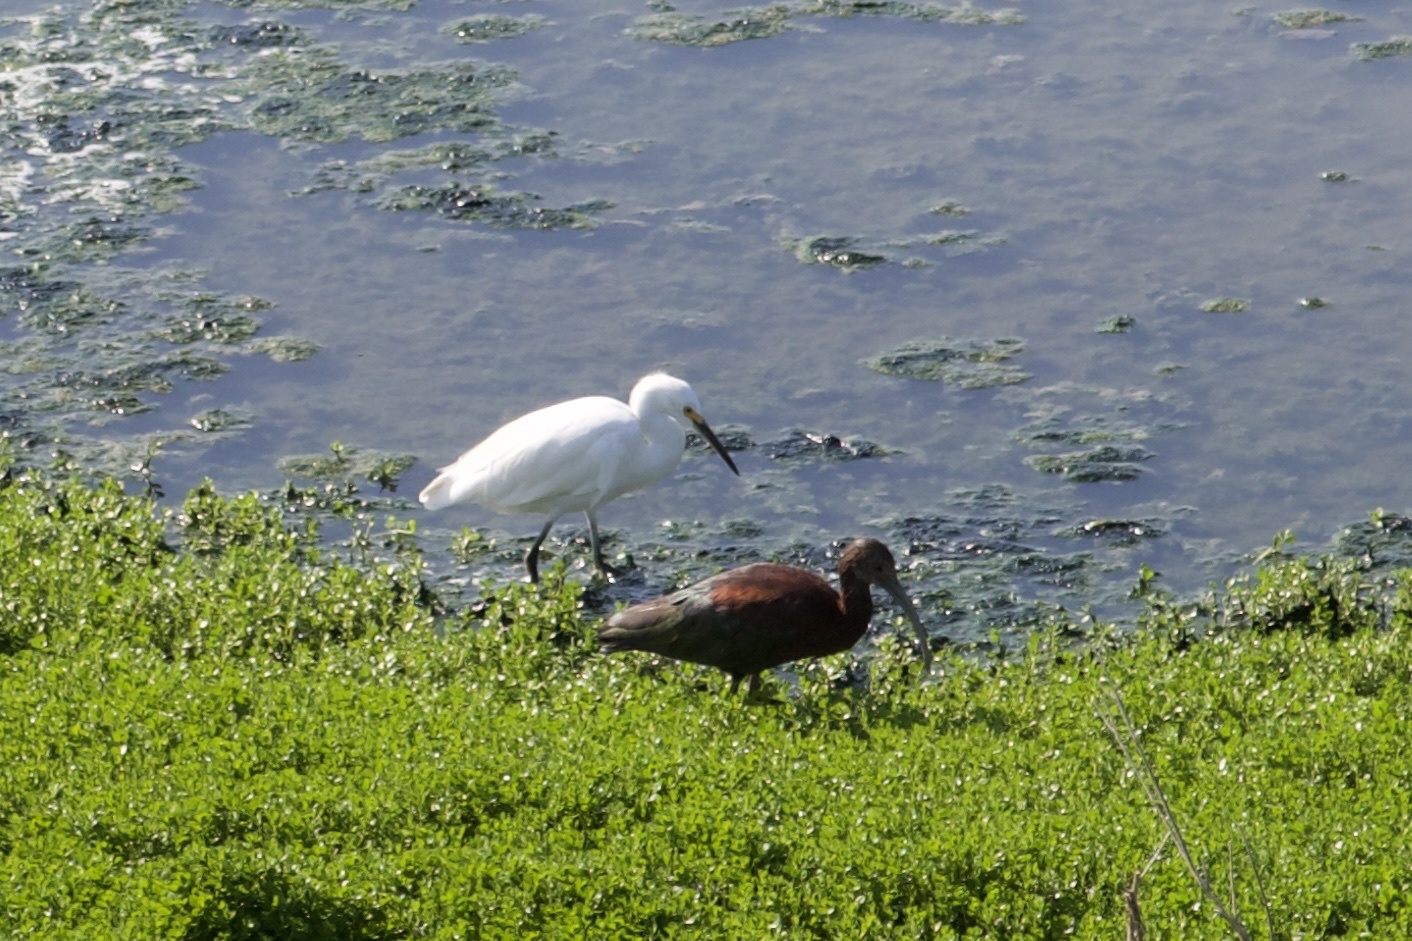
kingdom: Animalia
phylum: Chordata
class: Aves
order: Pelecaniformes
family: Threskiornithidae
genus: Plegadis
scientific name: Plegadis chihi
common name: White-faced ibis
